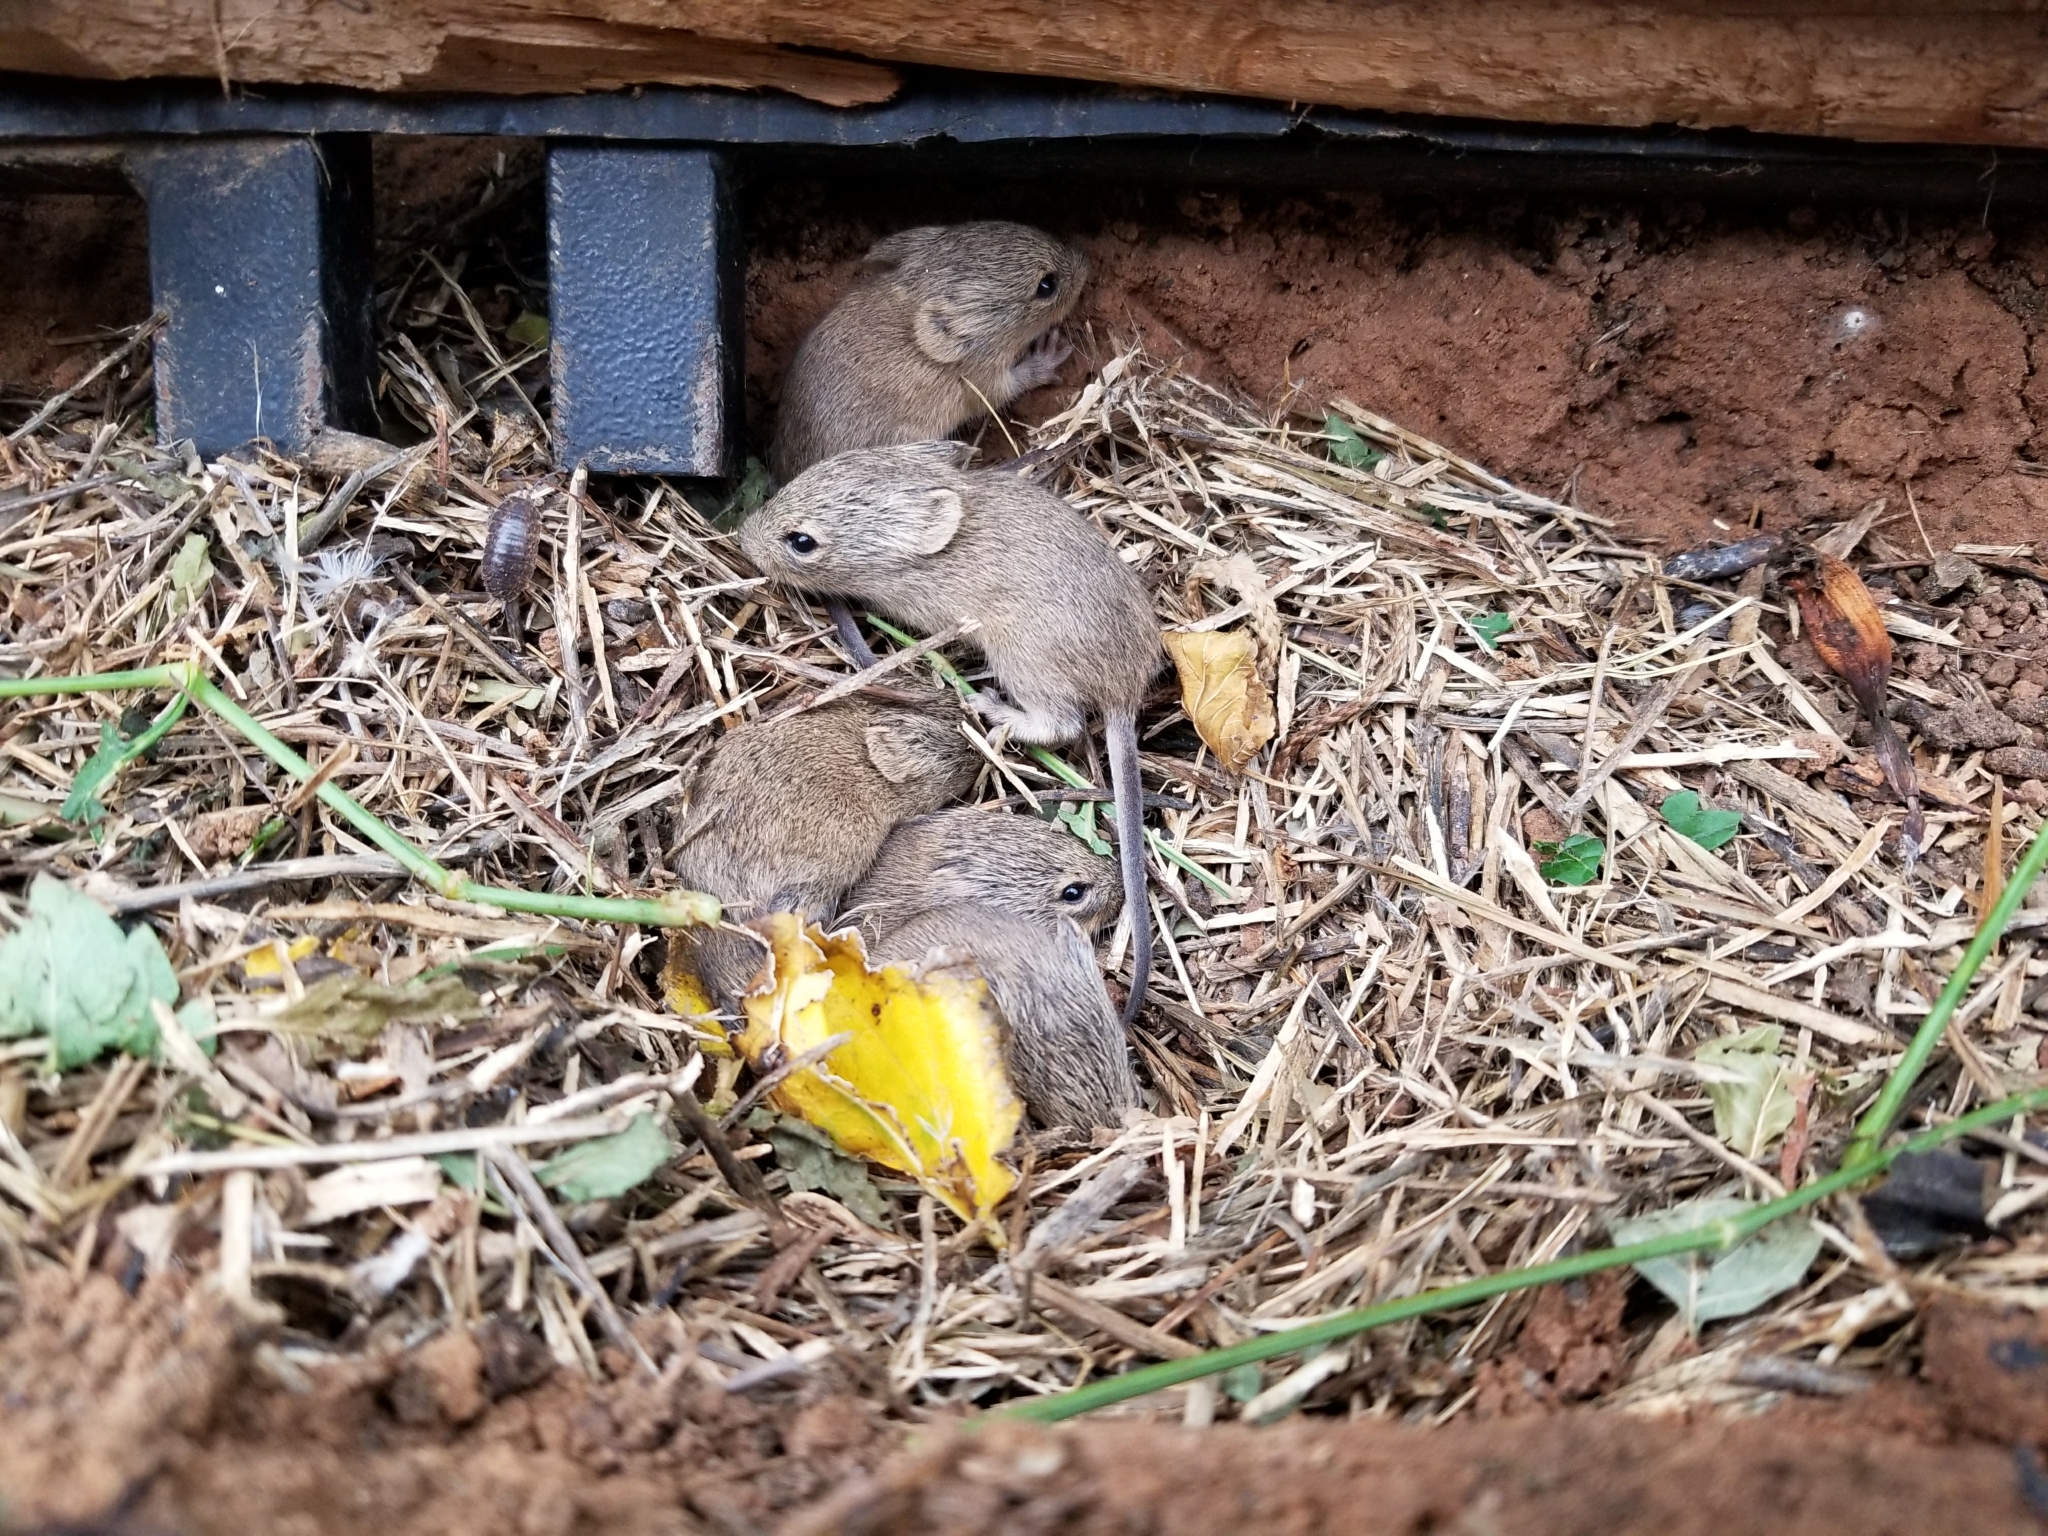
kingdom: Animalia
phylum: Chordata
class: Mammalia
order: Rodentia
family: Cricetidae
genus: Sigmodon
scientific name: Sigmodon hispidus
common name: Hispid cotton rat
